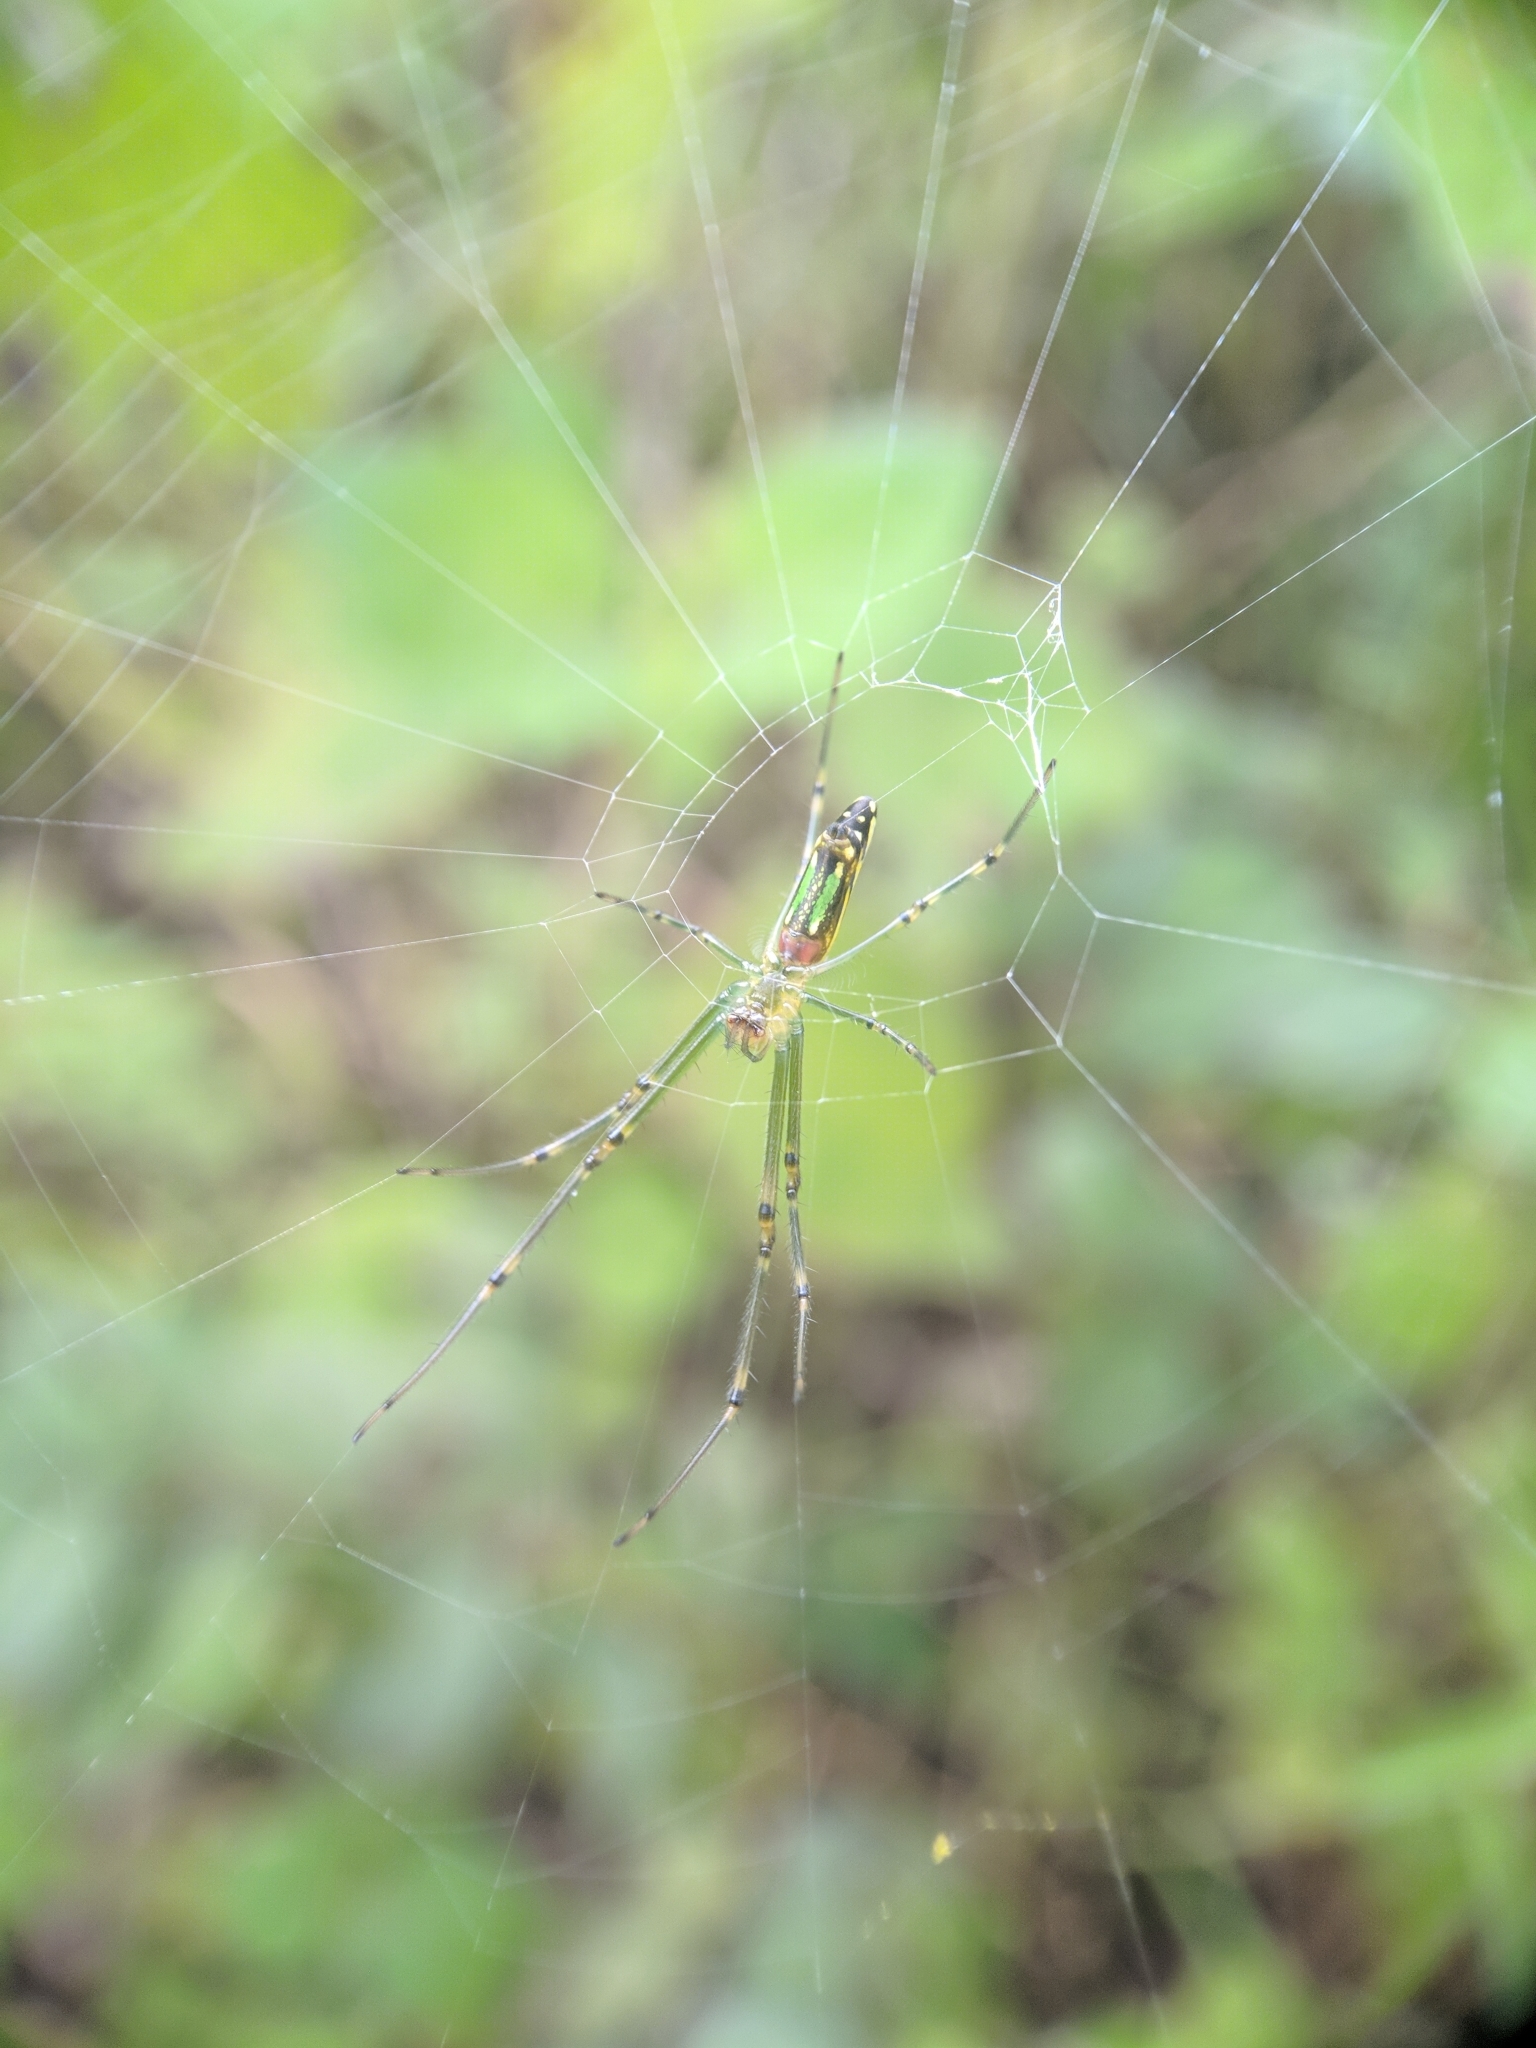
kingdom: Animalia
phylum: Arthropoda
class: Arachnida
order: Araneae
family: Tetragnathidae
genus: Leucauge
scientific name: Leucauge decorata
